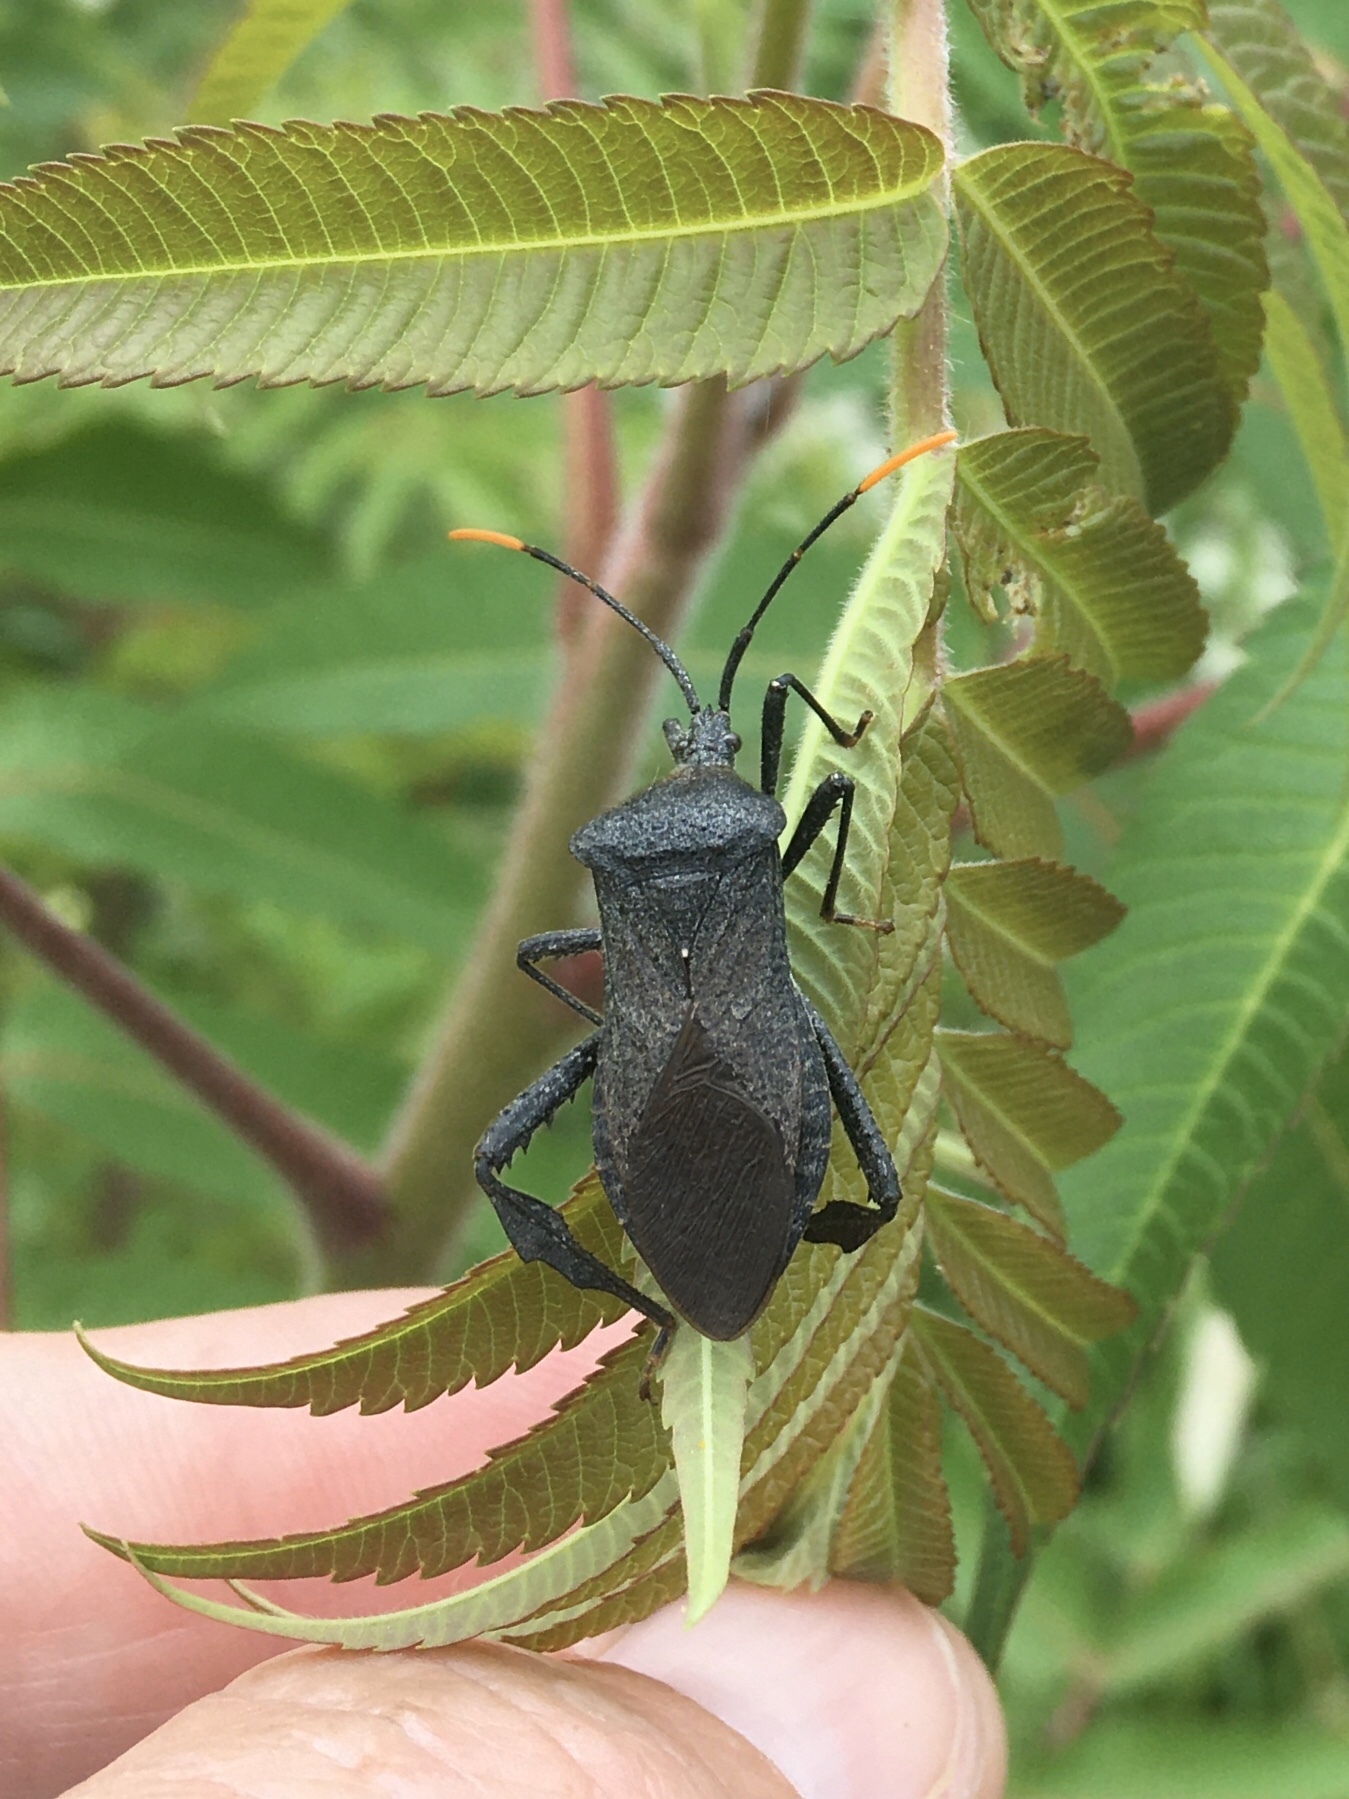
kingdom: Animalia
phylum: Arthropoda
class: Insecta
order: Hemiptera
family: Coreidae
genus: Acanthocephala
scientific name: Acanthocephala terminalis
